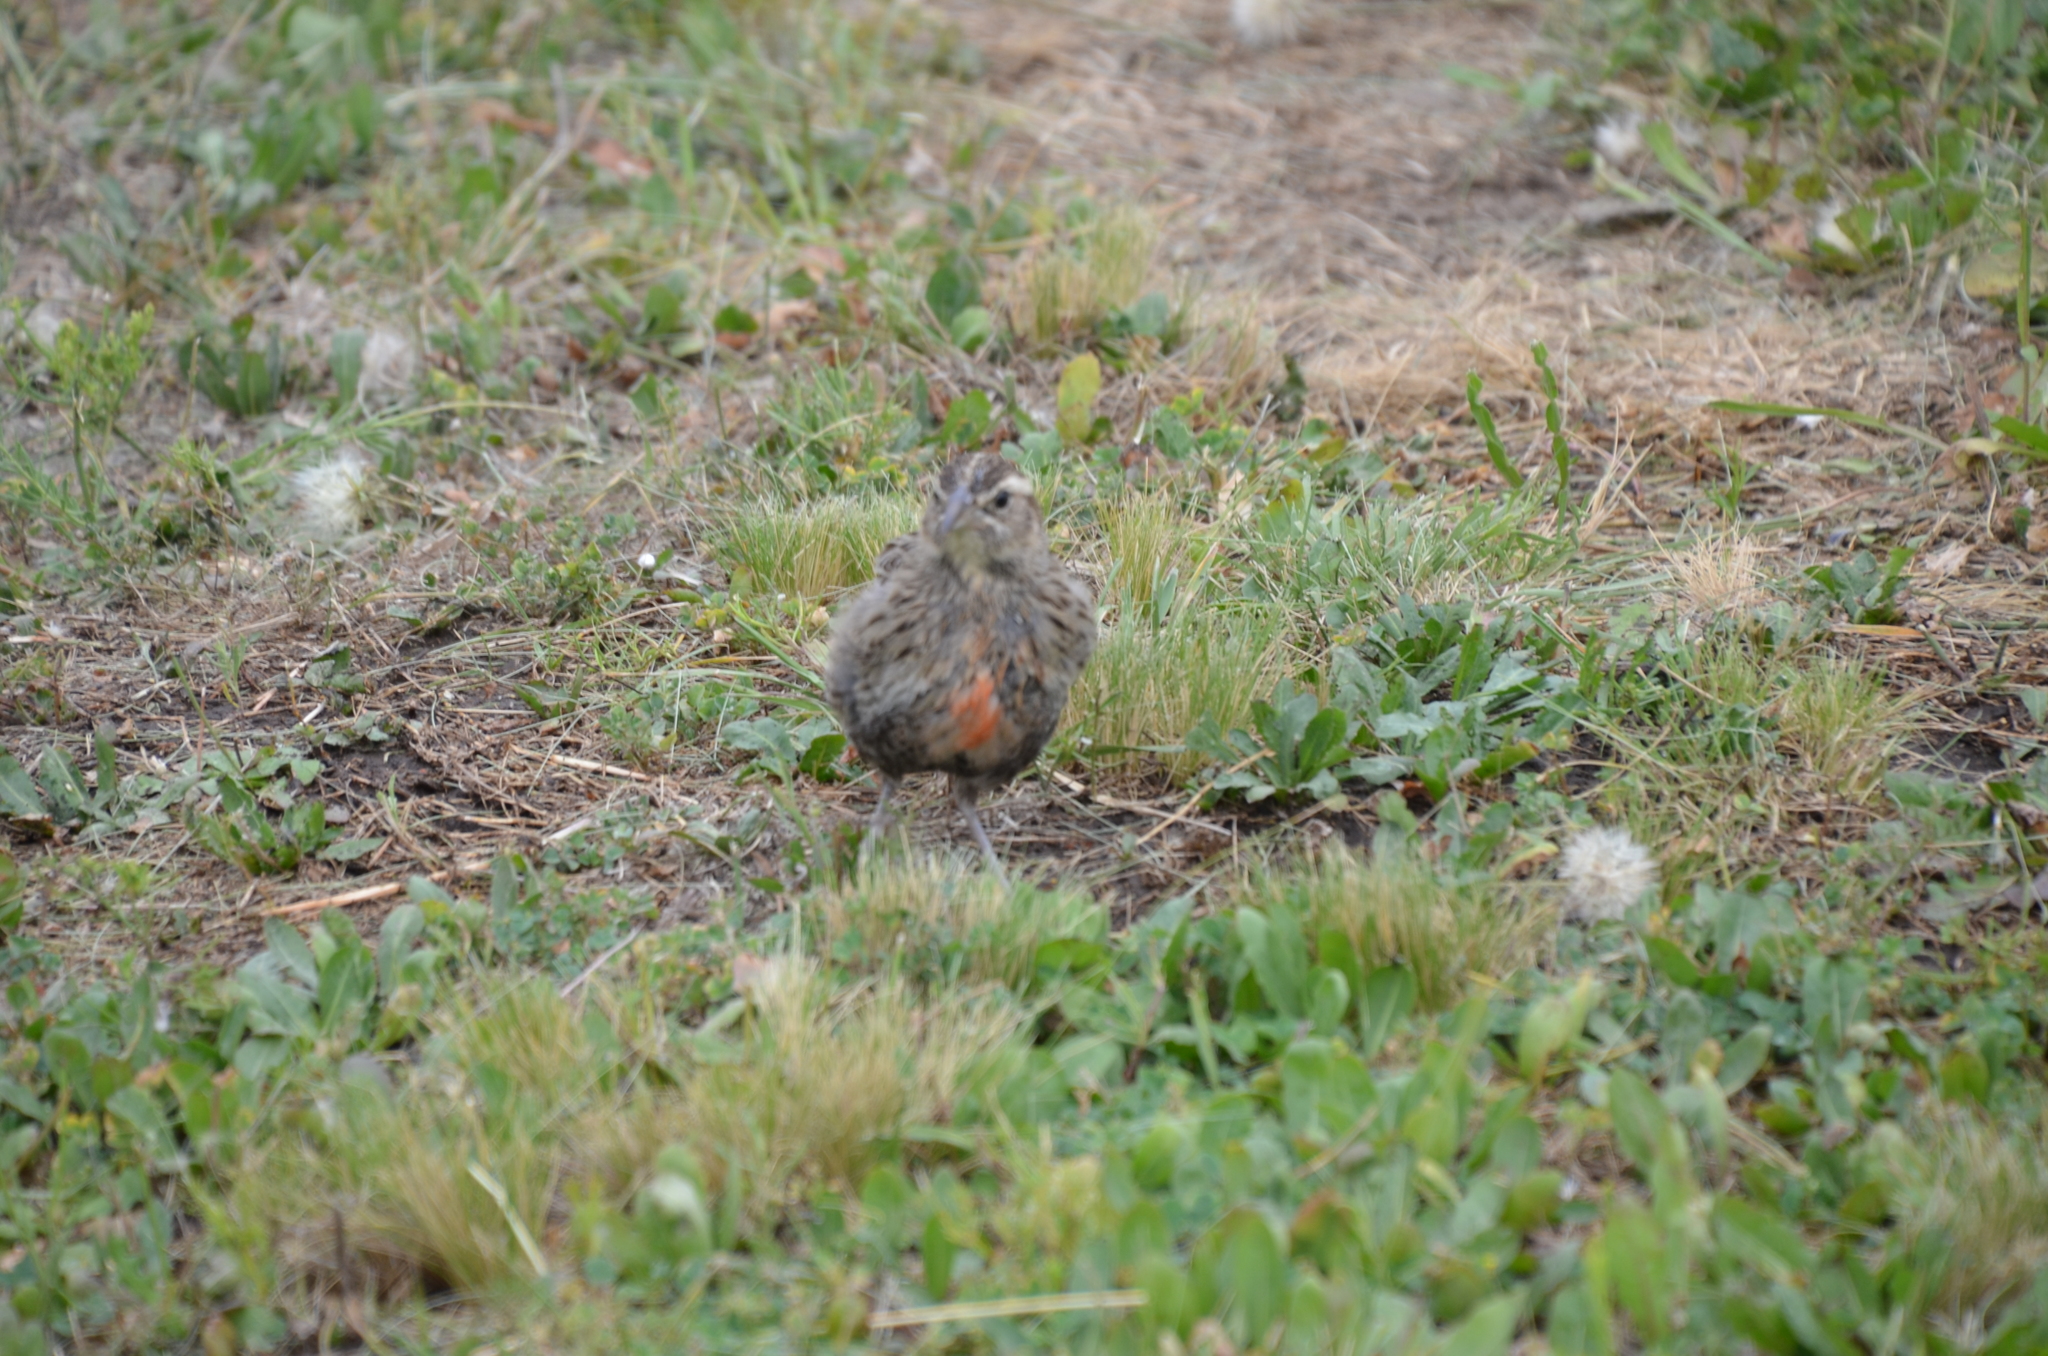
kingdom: Animalia
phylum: Chordata
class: Aves
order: Passeriformes
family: Icteridae
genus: Sturnella
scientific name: Sturnella loyca
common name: Long-tailed meadowlark
